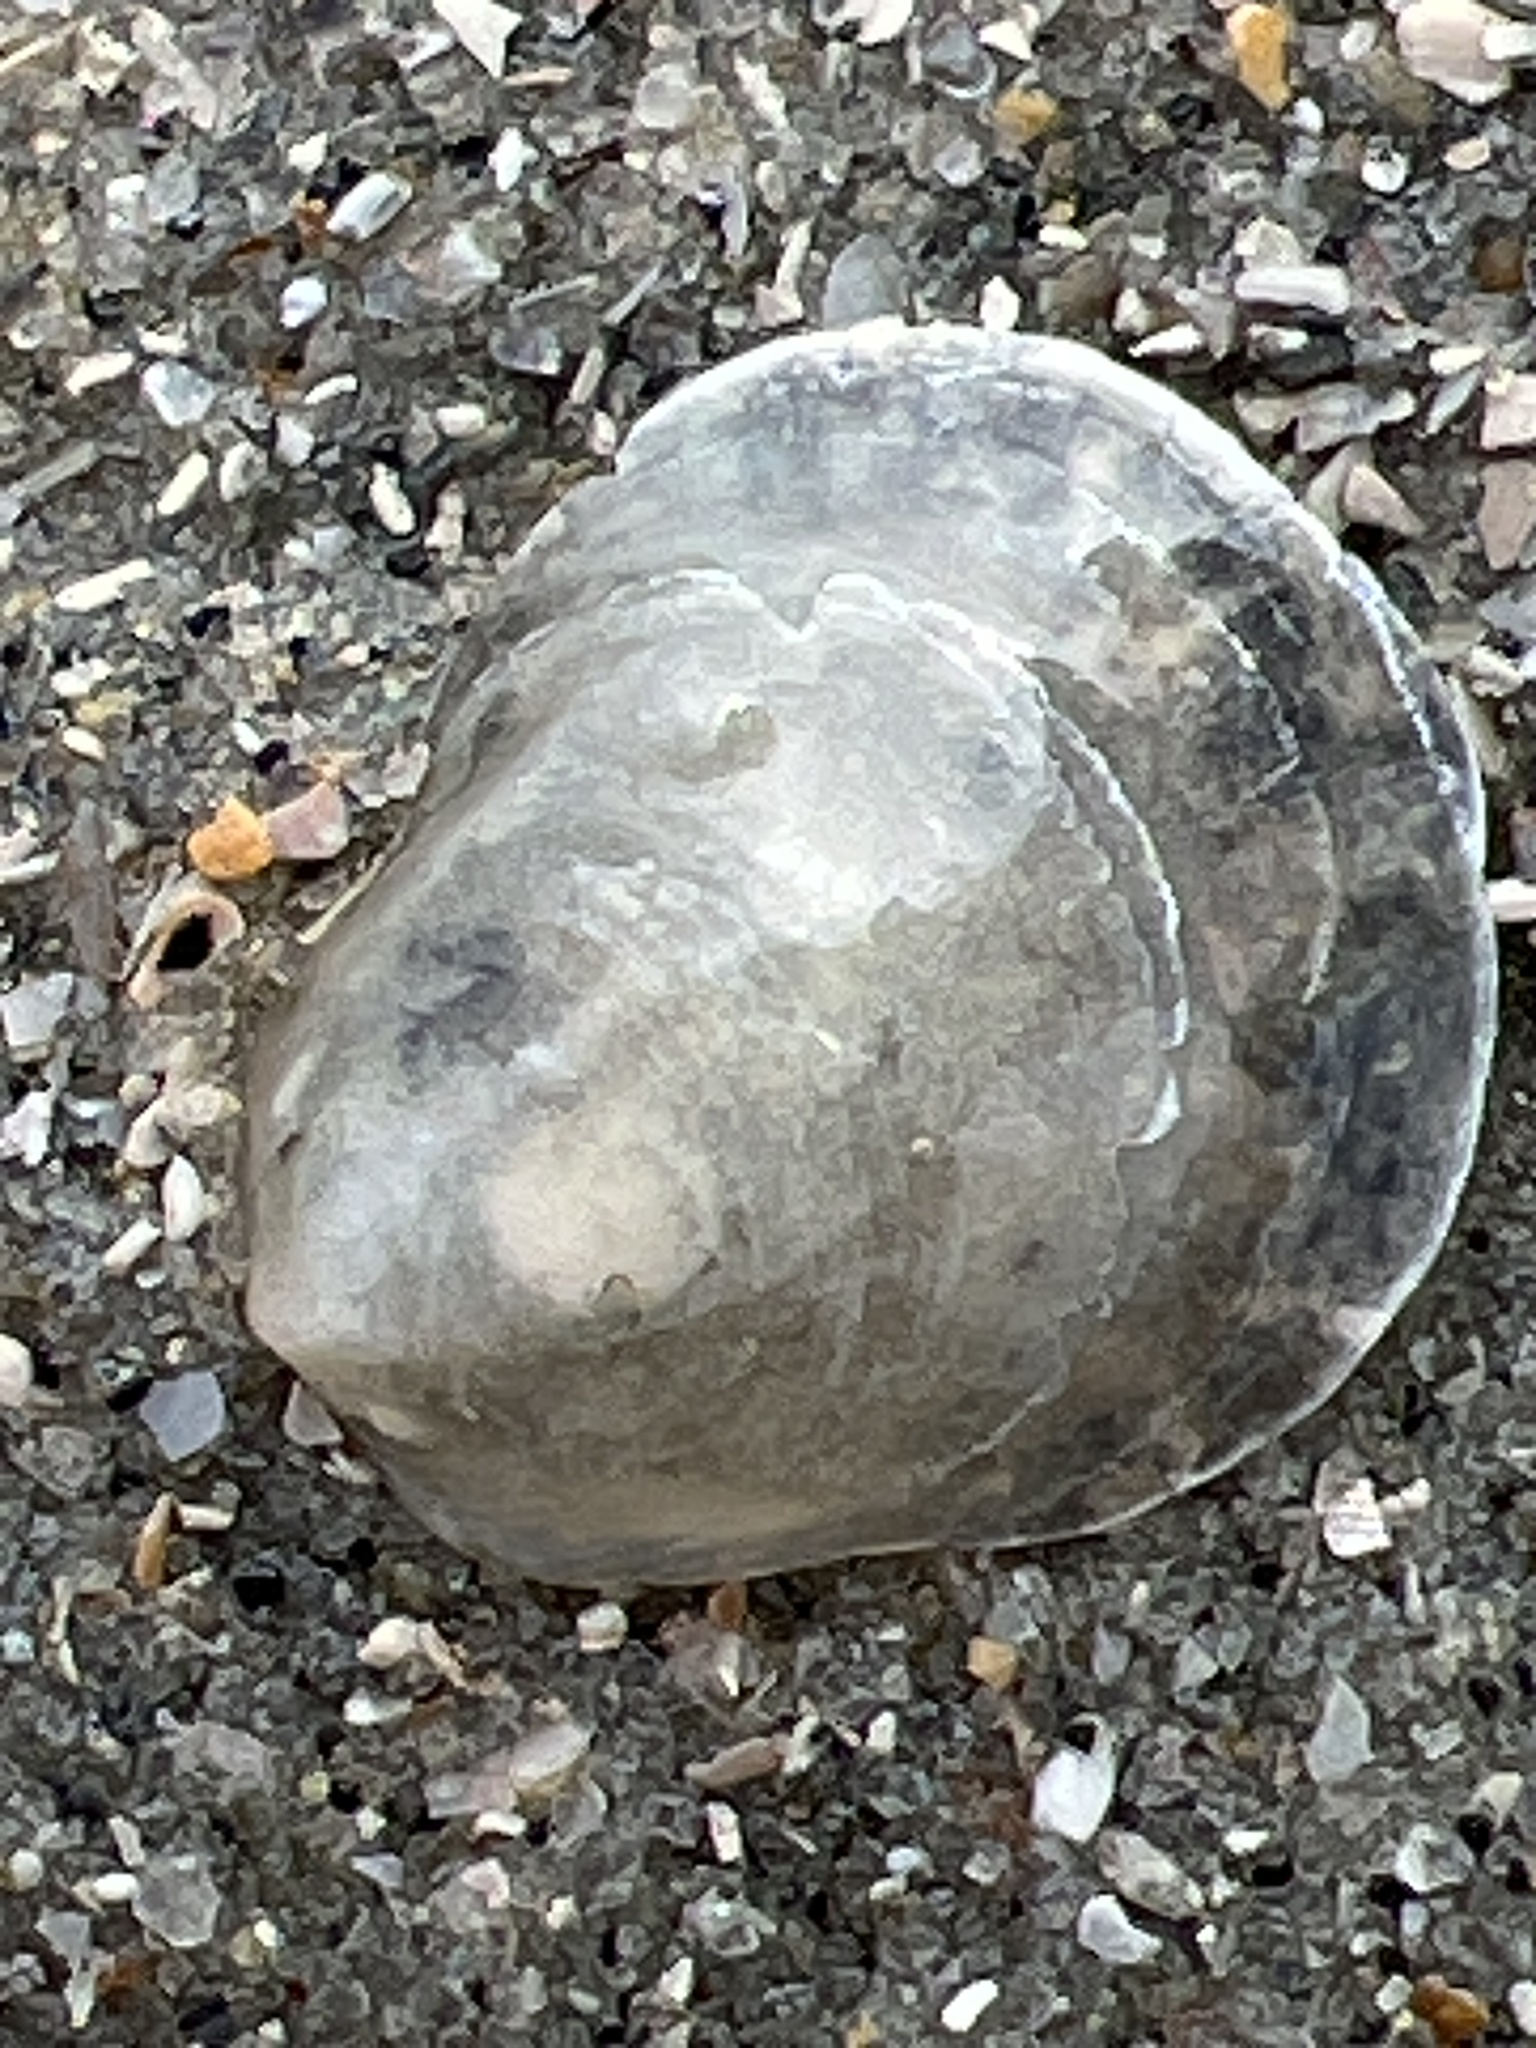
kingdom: Animalia
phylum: Mollusca
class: Bivalvia
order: Pectinida
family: Anomiidae
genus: Anomia
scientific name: Anomia simplex
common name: Common jingle shell
